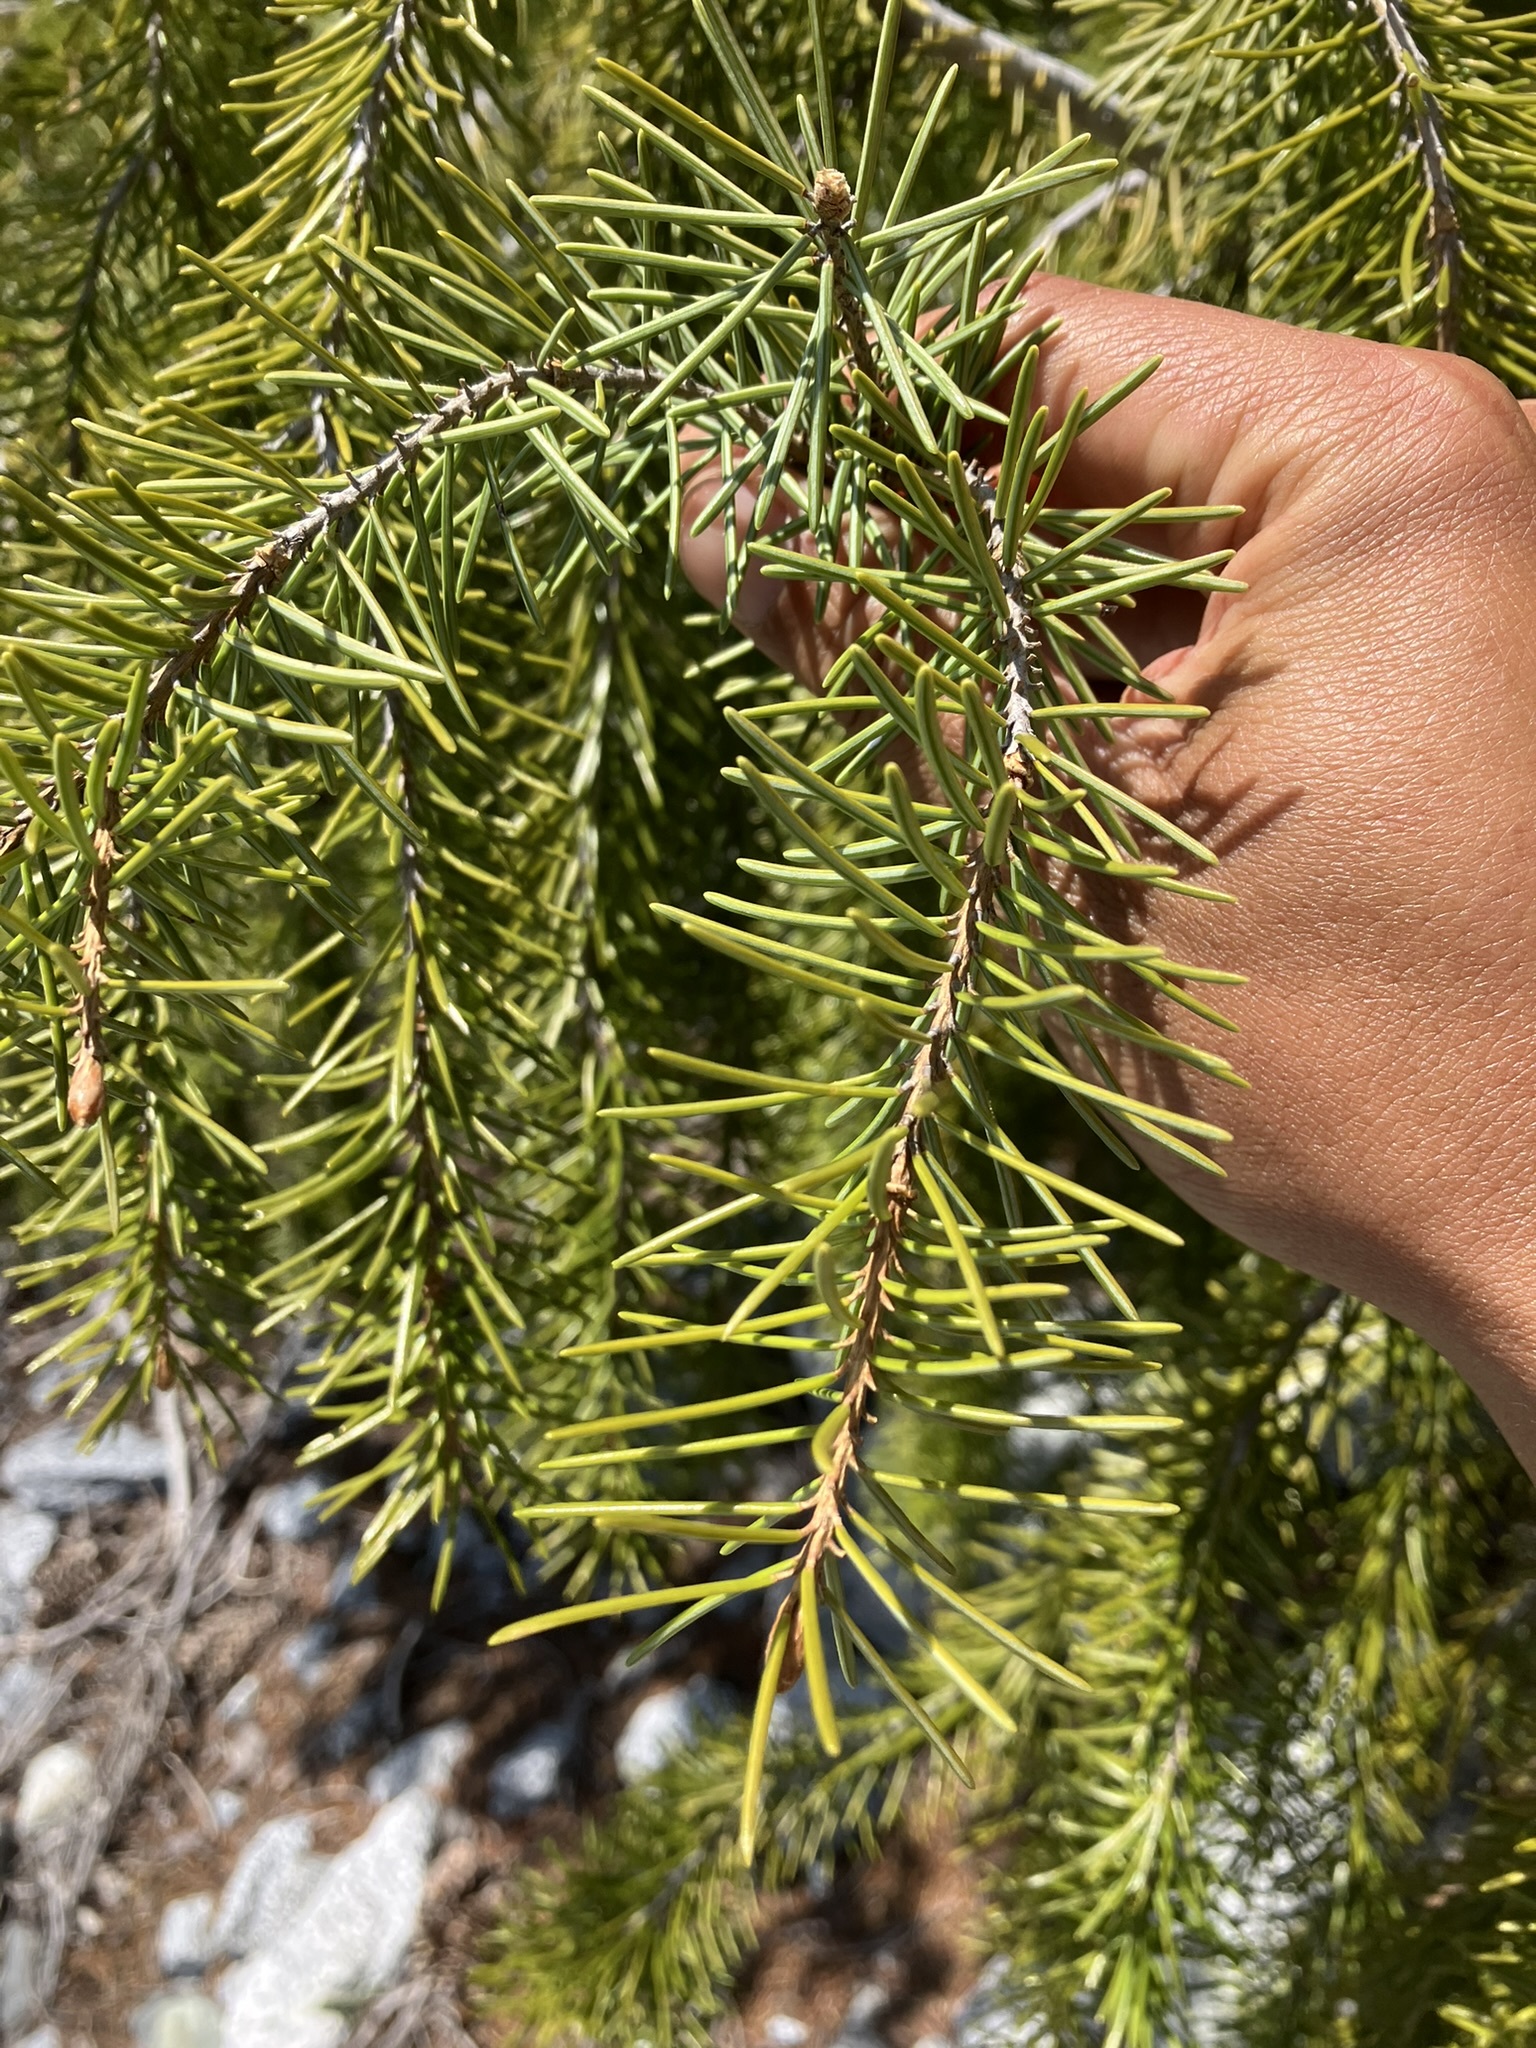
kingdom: Plantae
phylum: Tracheophyta
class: Pinopsida
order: Pinales
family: Pinaceae
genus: Picea
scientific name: Picea breweriana
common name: Brewer's spruce
